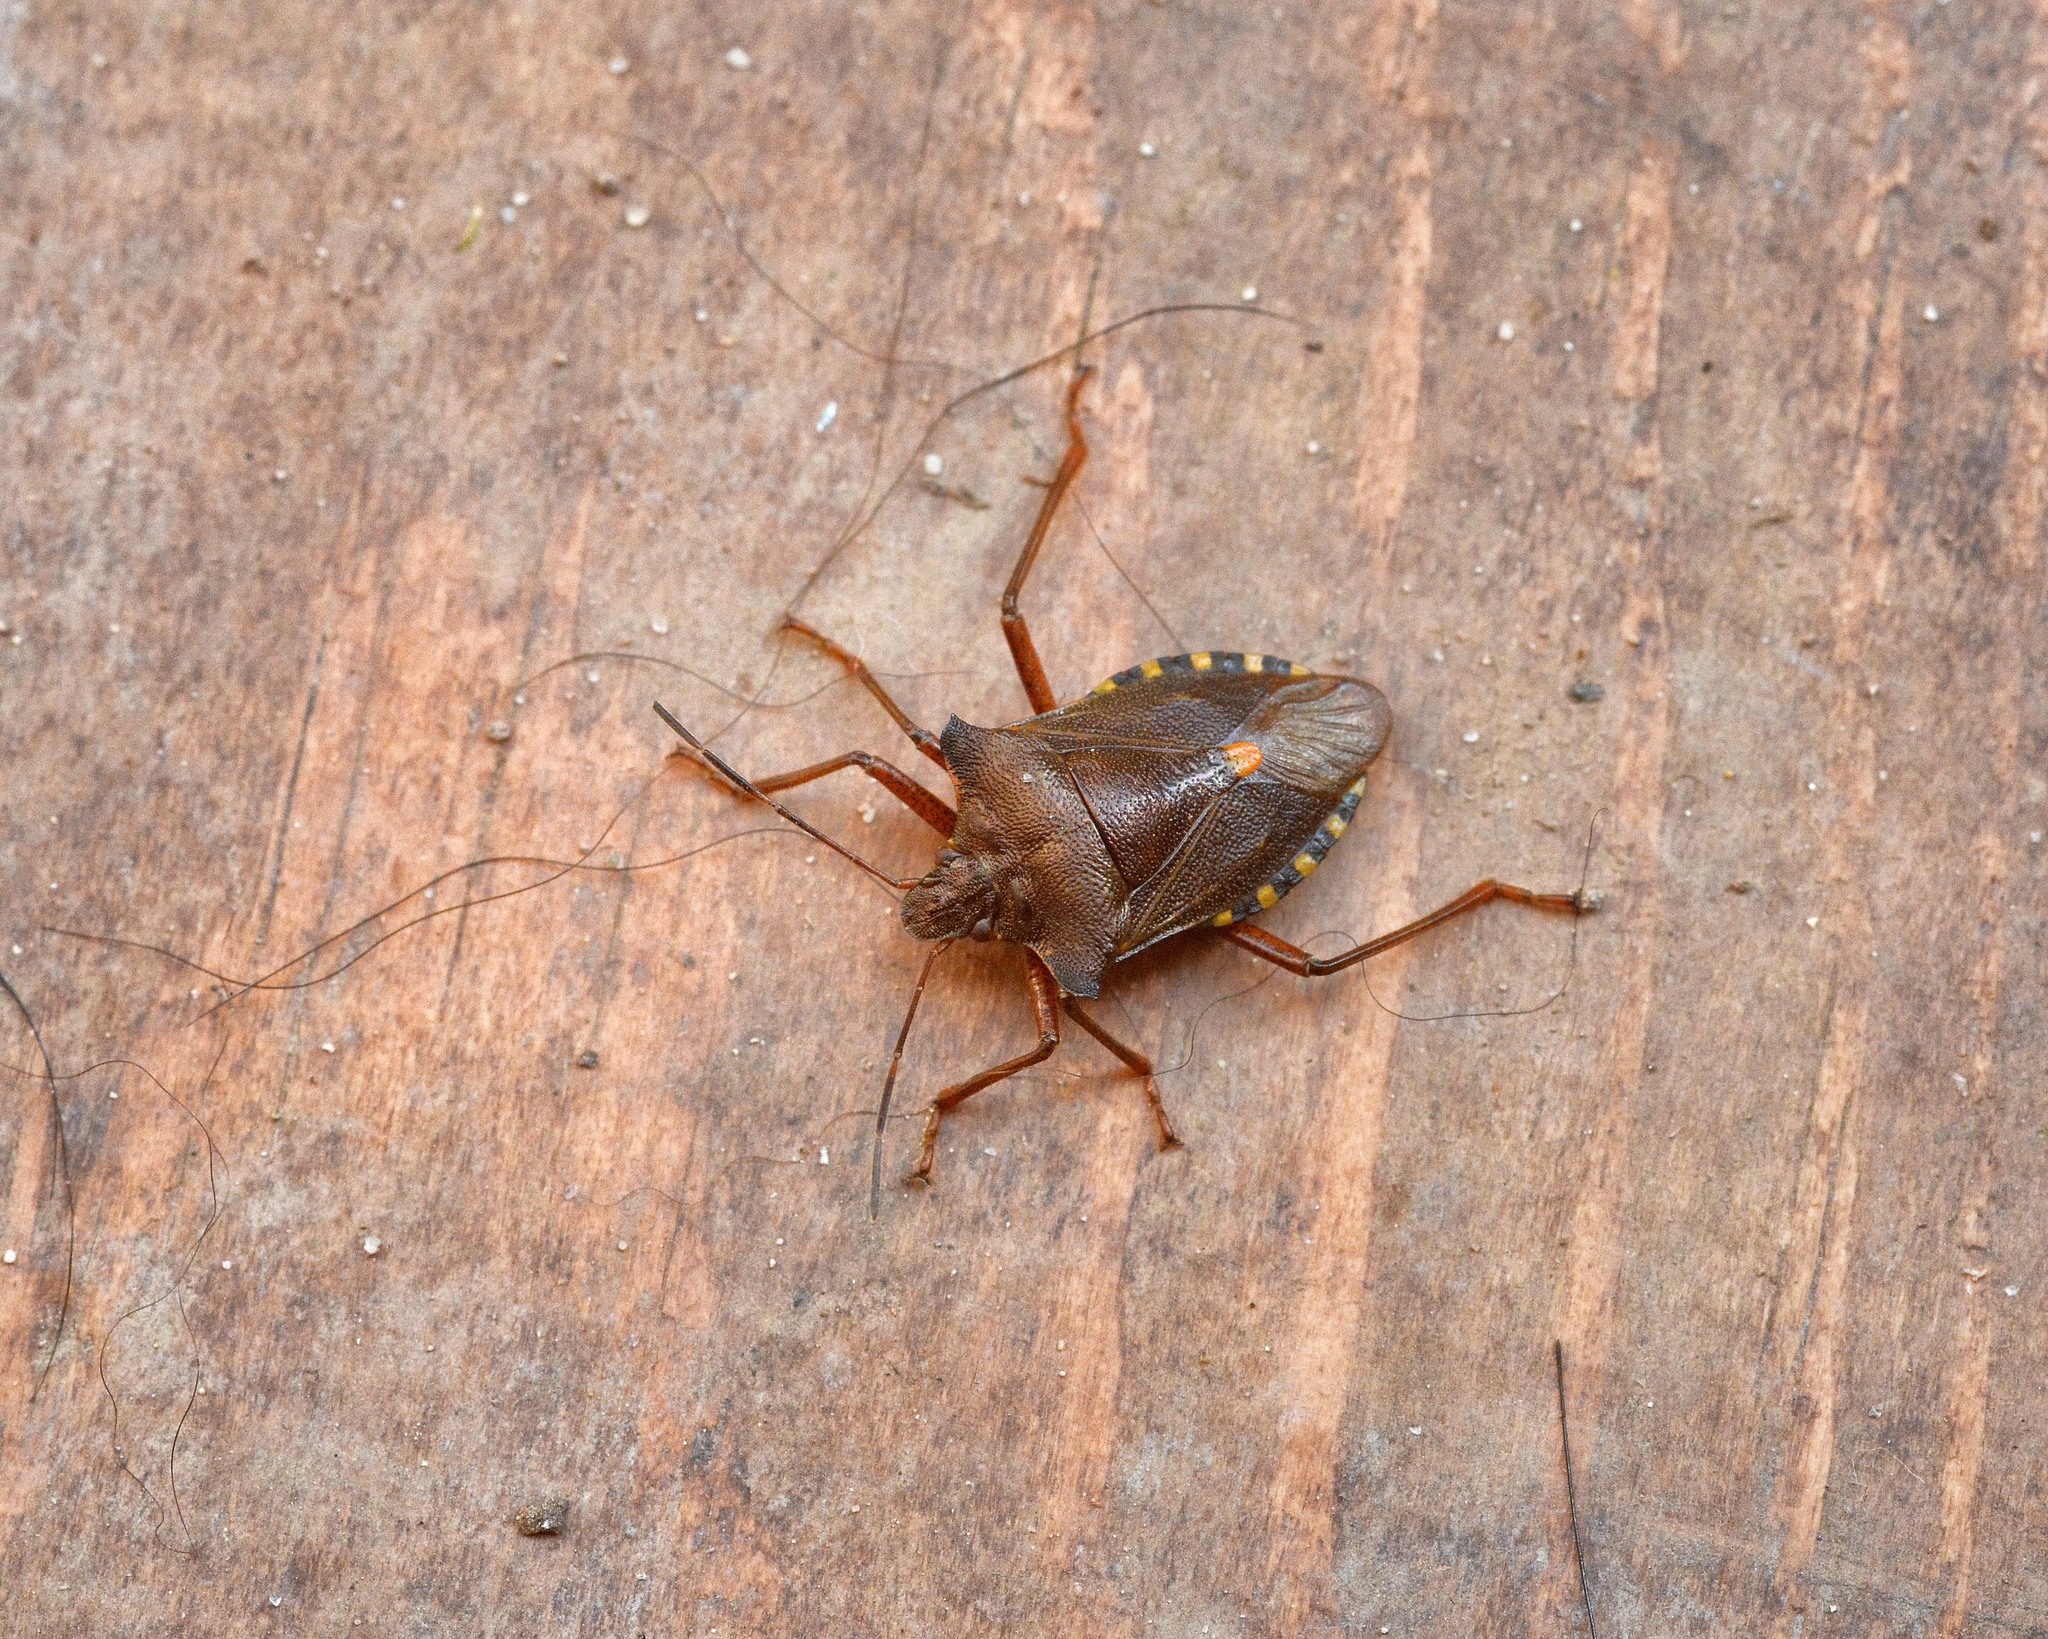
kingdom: Animalia
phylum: Arthropoda
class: Insecta
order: Hemiptera
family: Pentatomidae
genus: Pentatoma
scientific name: Pentatoma rufipes
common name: Forest bug
